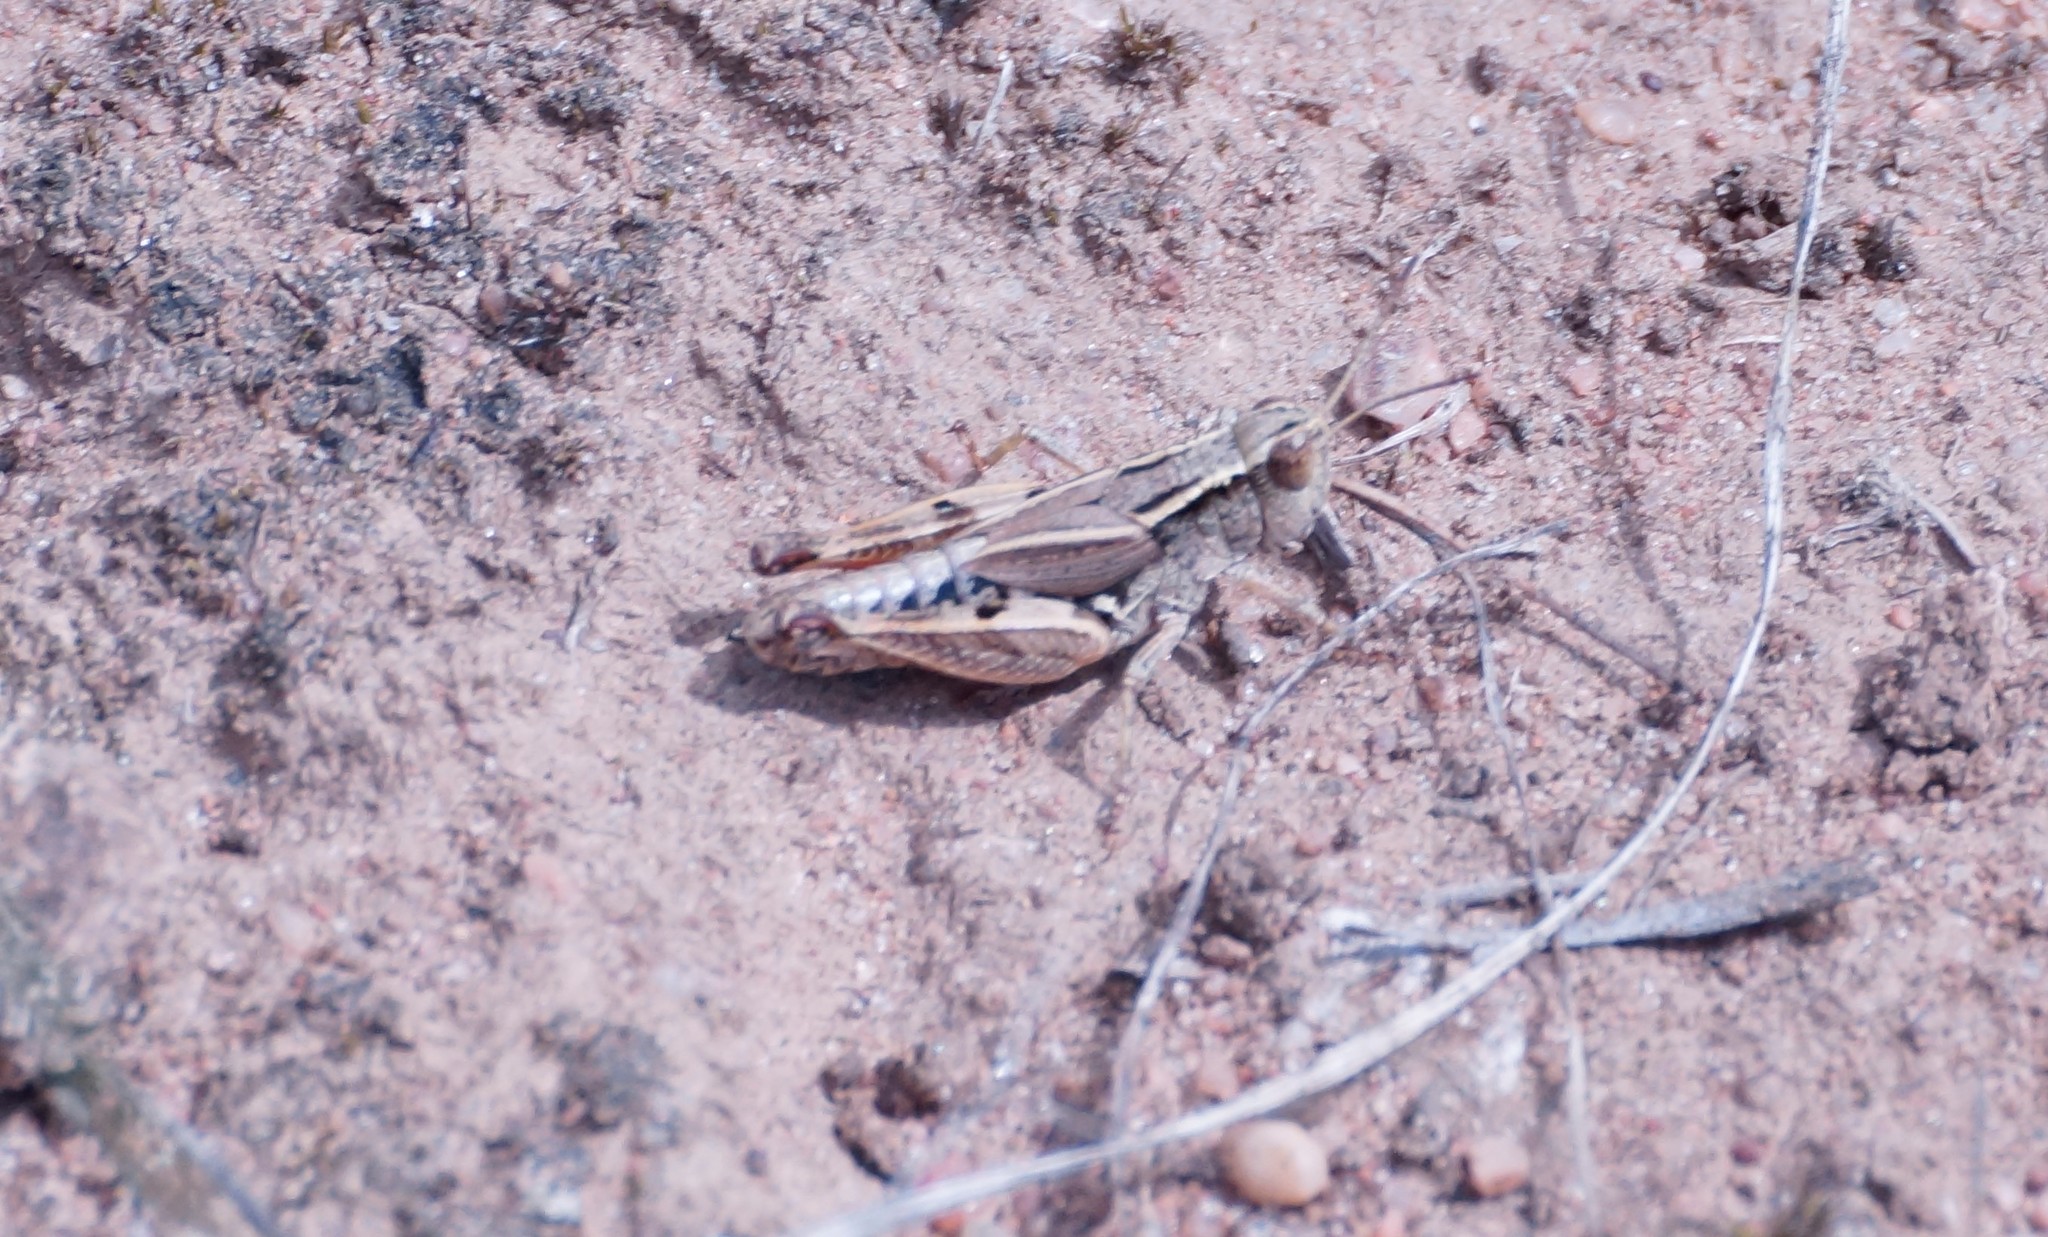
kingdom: Animalia
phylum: Arthropoda
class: Insecta
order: Orthoptera
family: Acrididae
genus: Phaulacridium
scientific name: Phaulacridium vittatum
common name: Wingless grasshopper
